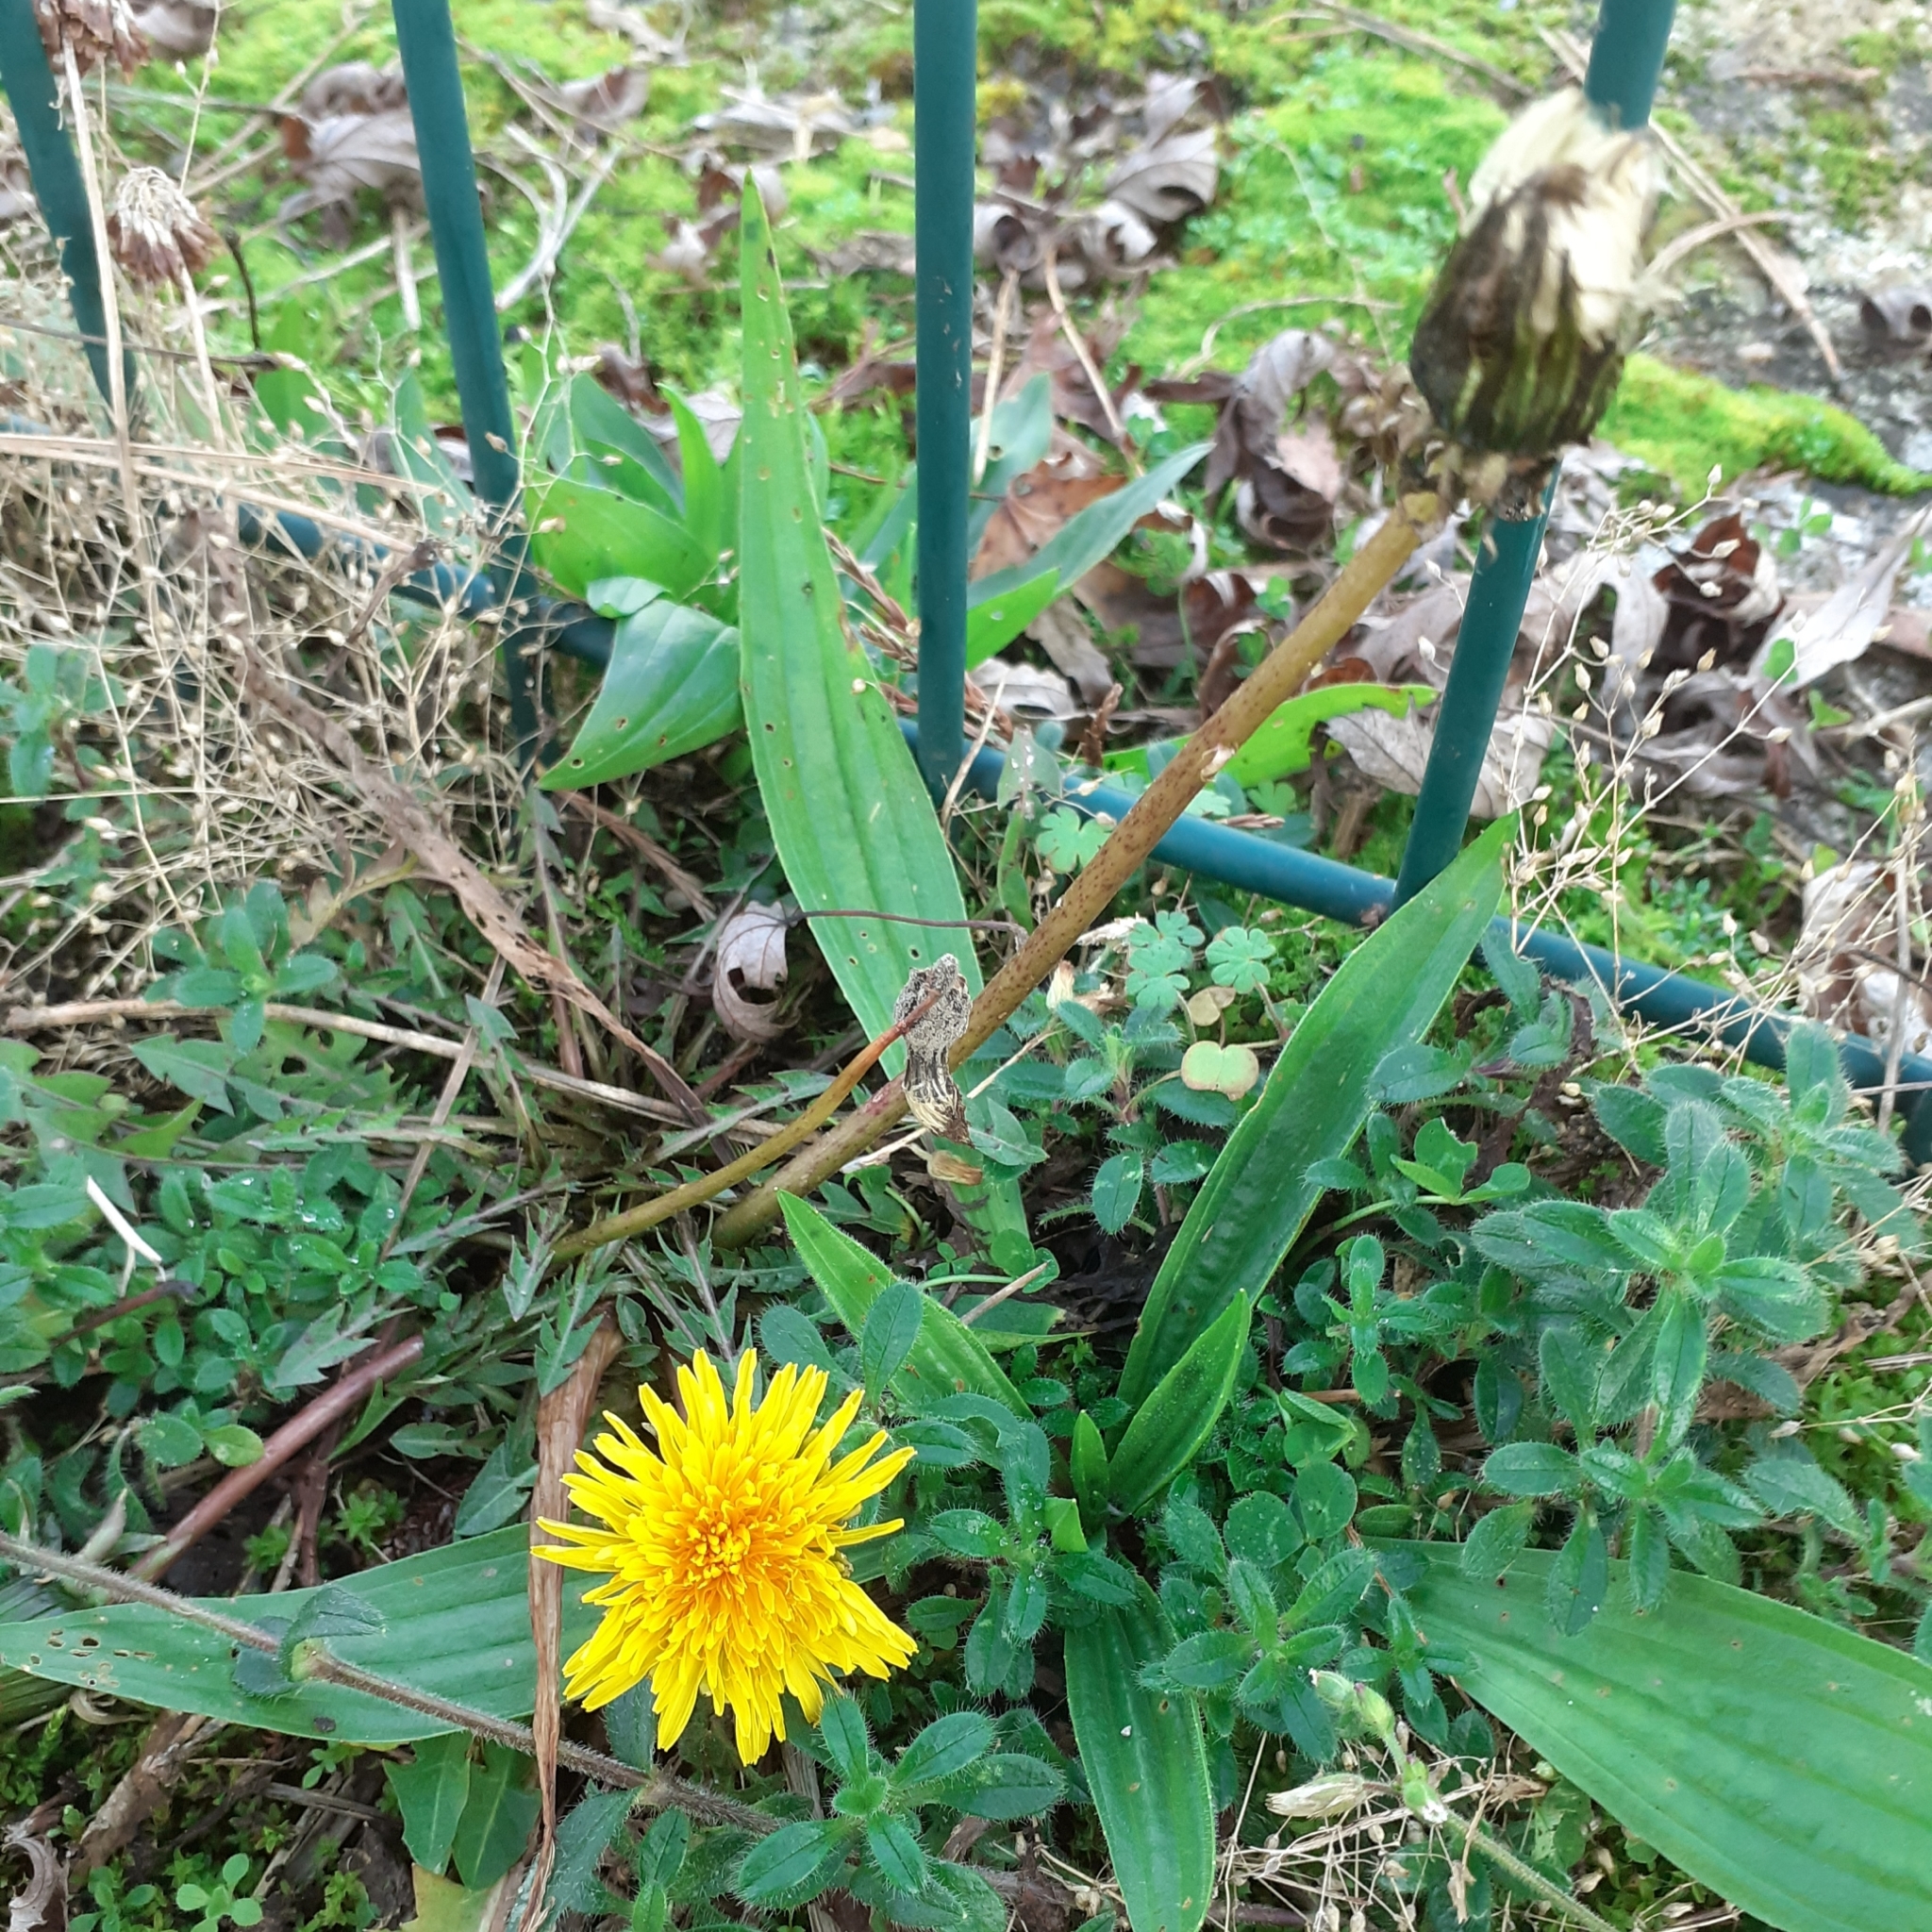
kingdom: Plantae
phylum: Tracheophyta
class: Magnoliopsida
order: Asterales
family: Asteraceae
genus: Taraxacum
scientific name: Taraxacum officinale
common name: Common dandelion
